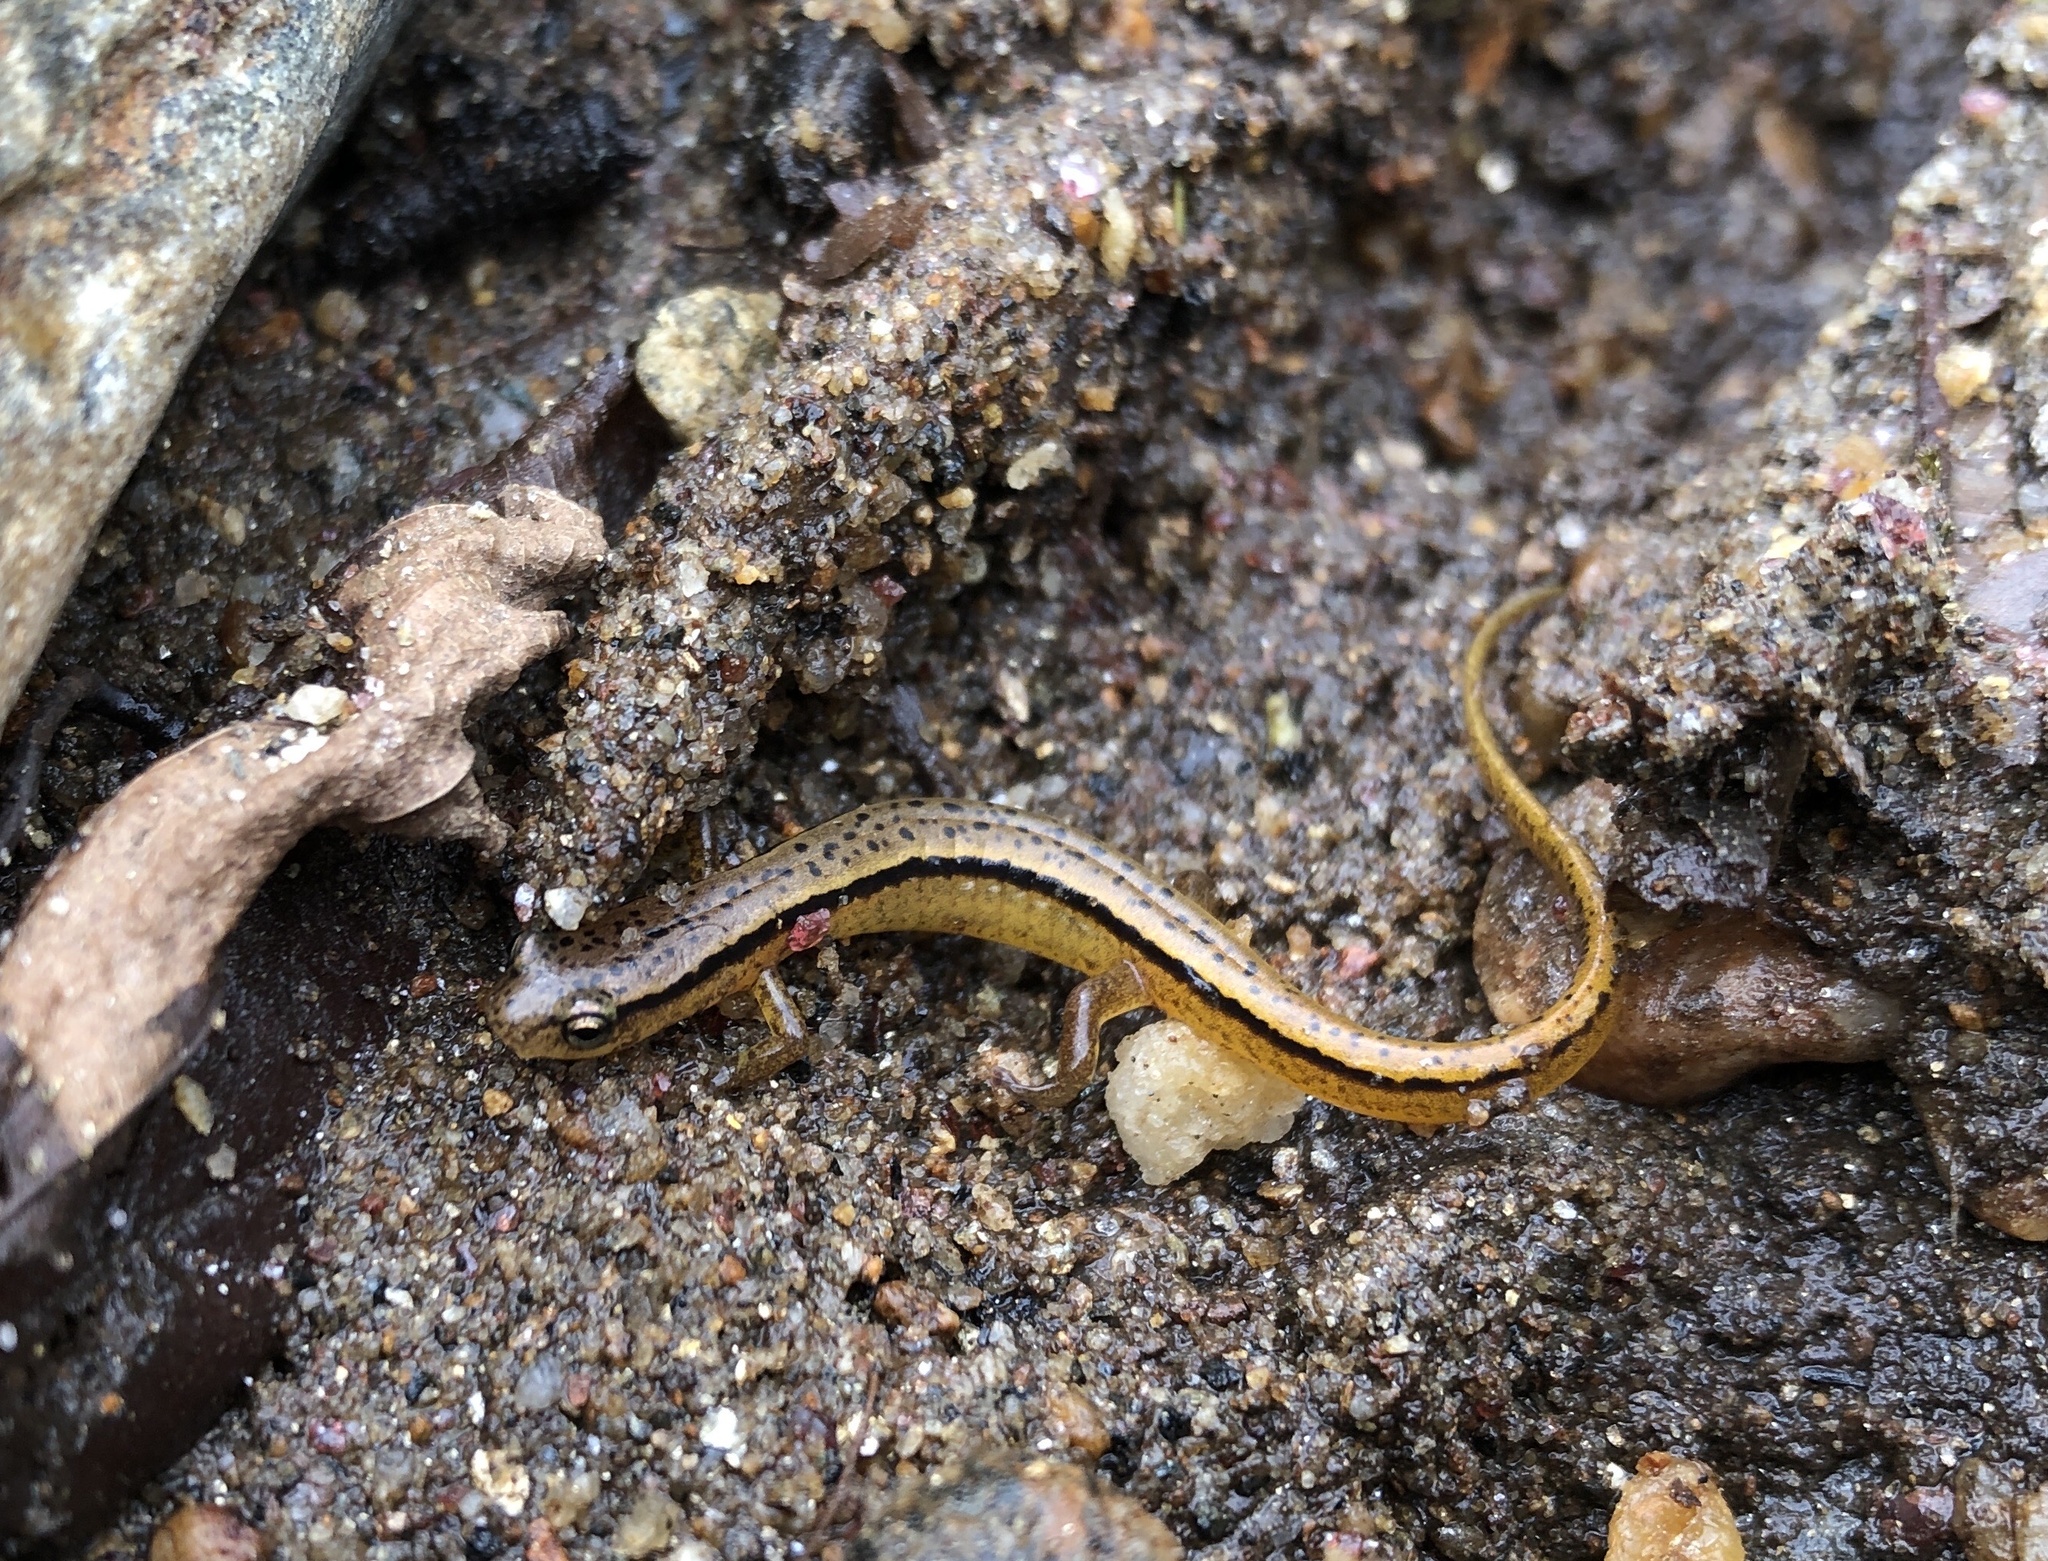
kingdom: Animalia
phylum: Chordata
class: Amphibia
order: Caudata
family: Plethodontidae
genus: Eurycea
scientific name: Eurycea cirrigera
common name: Southern two-lined salamander
